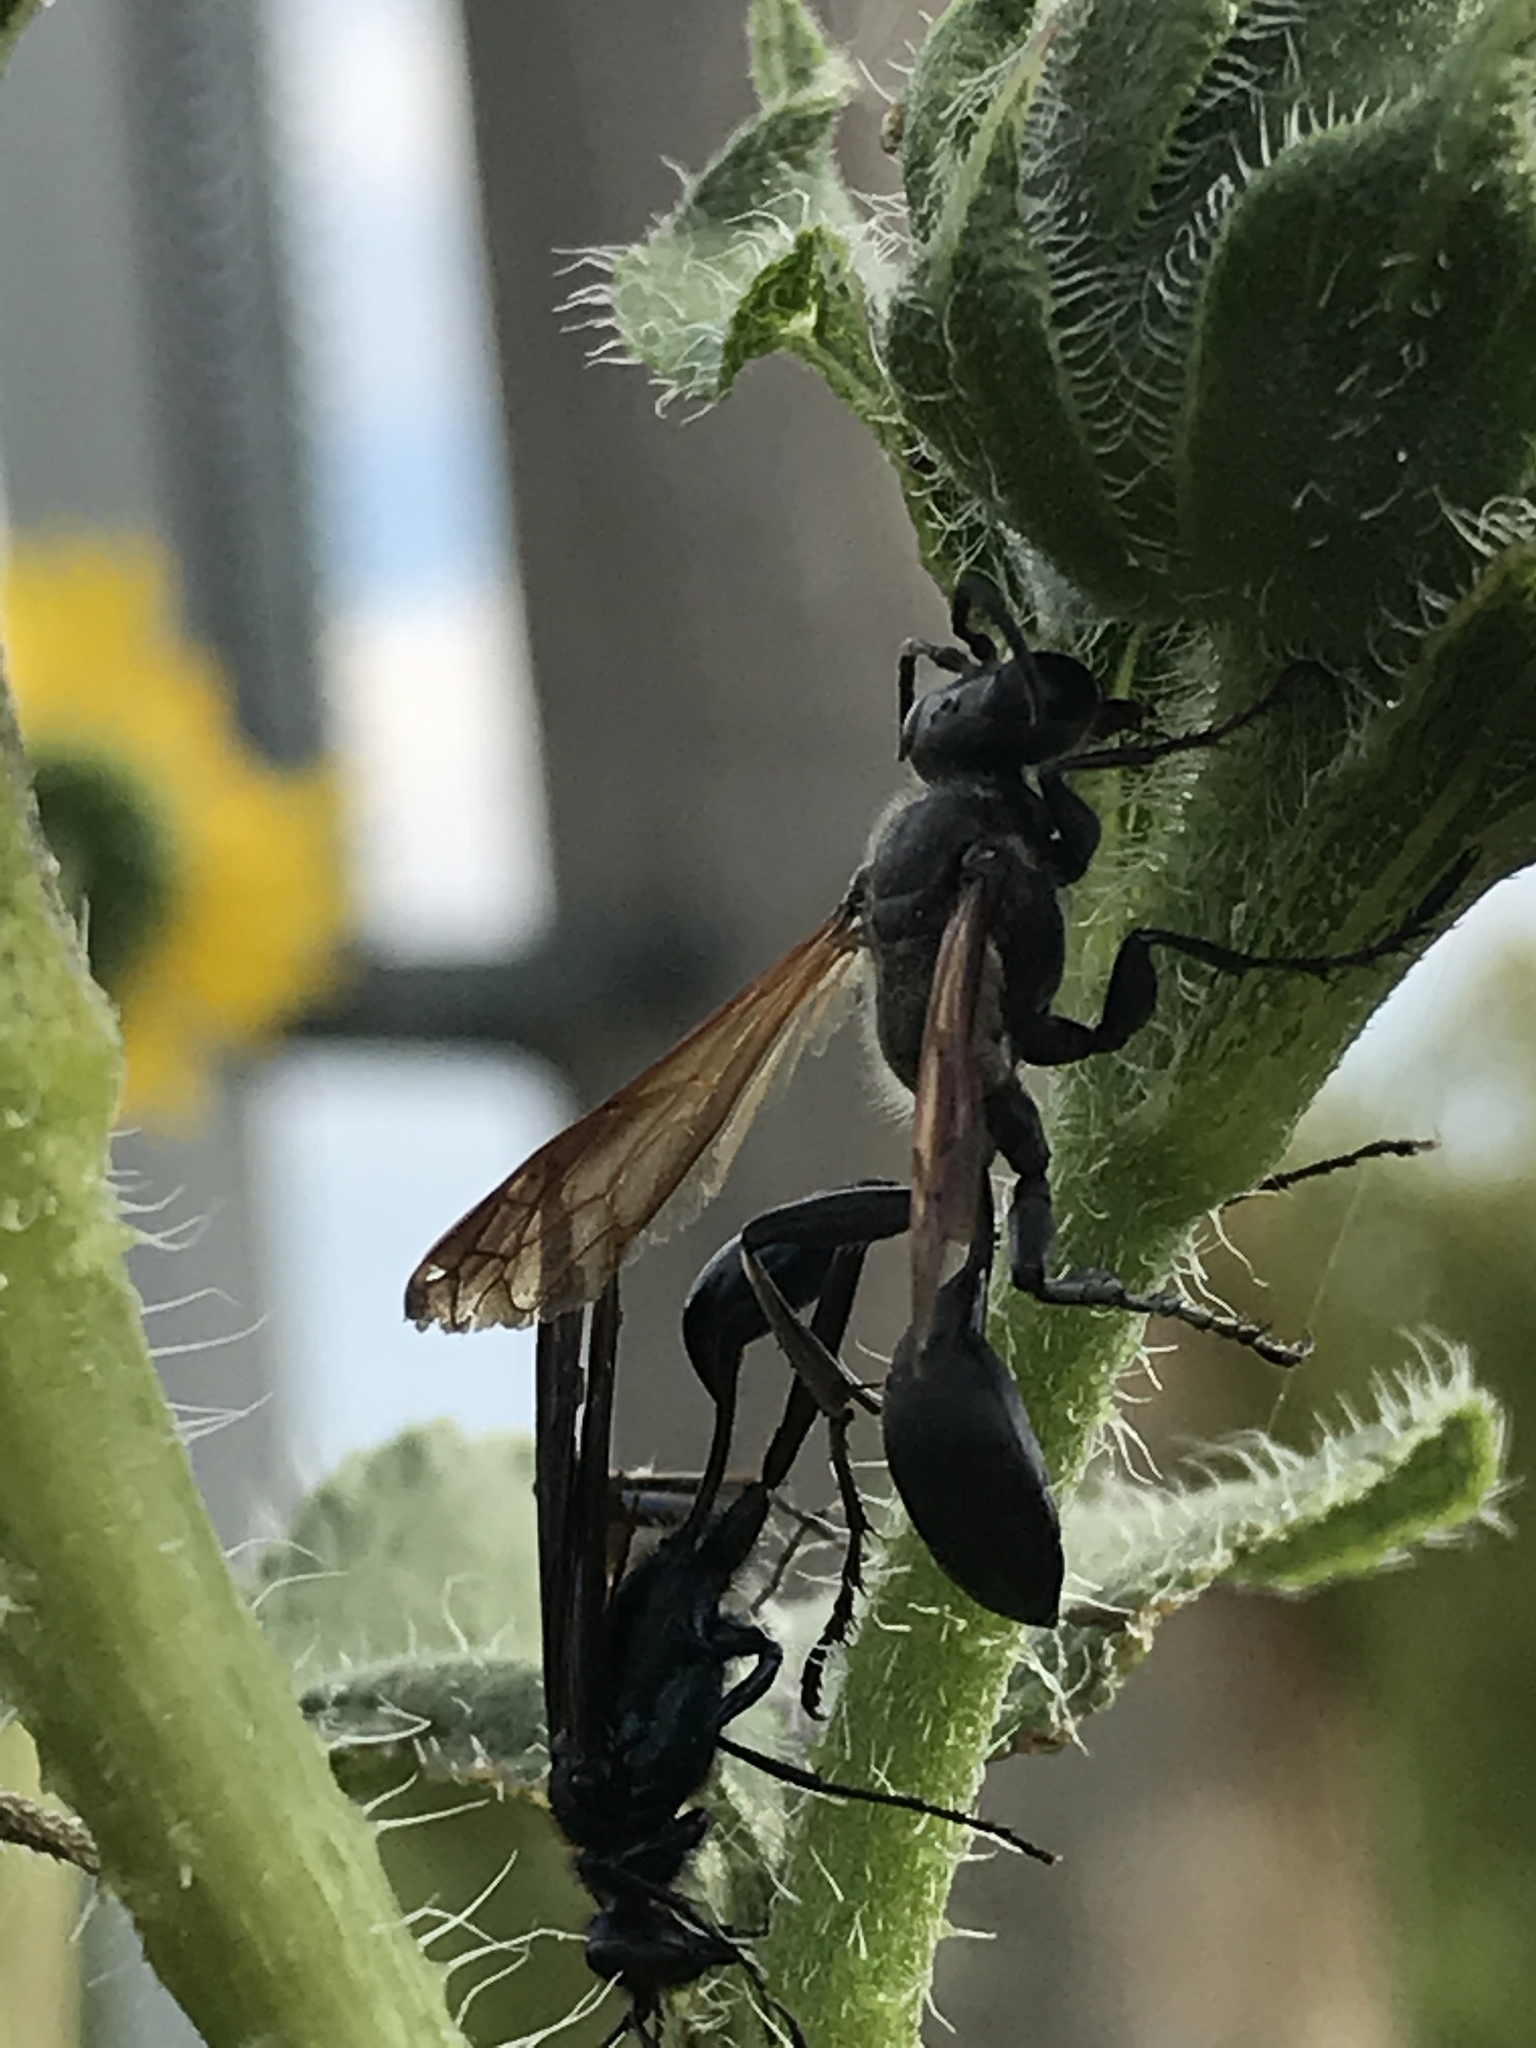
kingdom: Animalia
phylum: Arthropoda
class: Insecta
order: Hymenoptera
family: Sphecidae
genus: Isodontia
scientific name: Isodontia mexicana
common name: Mud dauber
